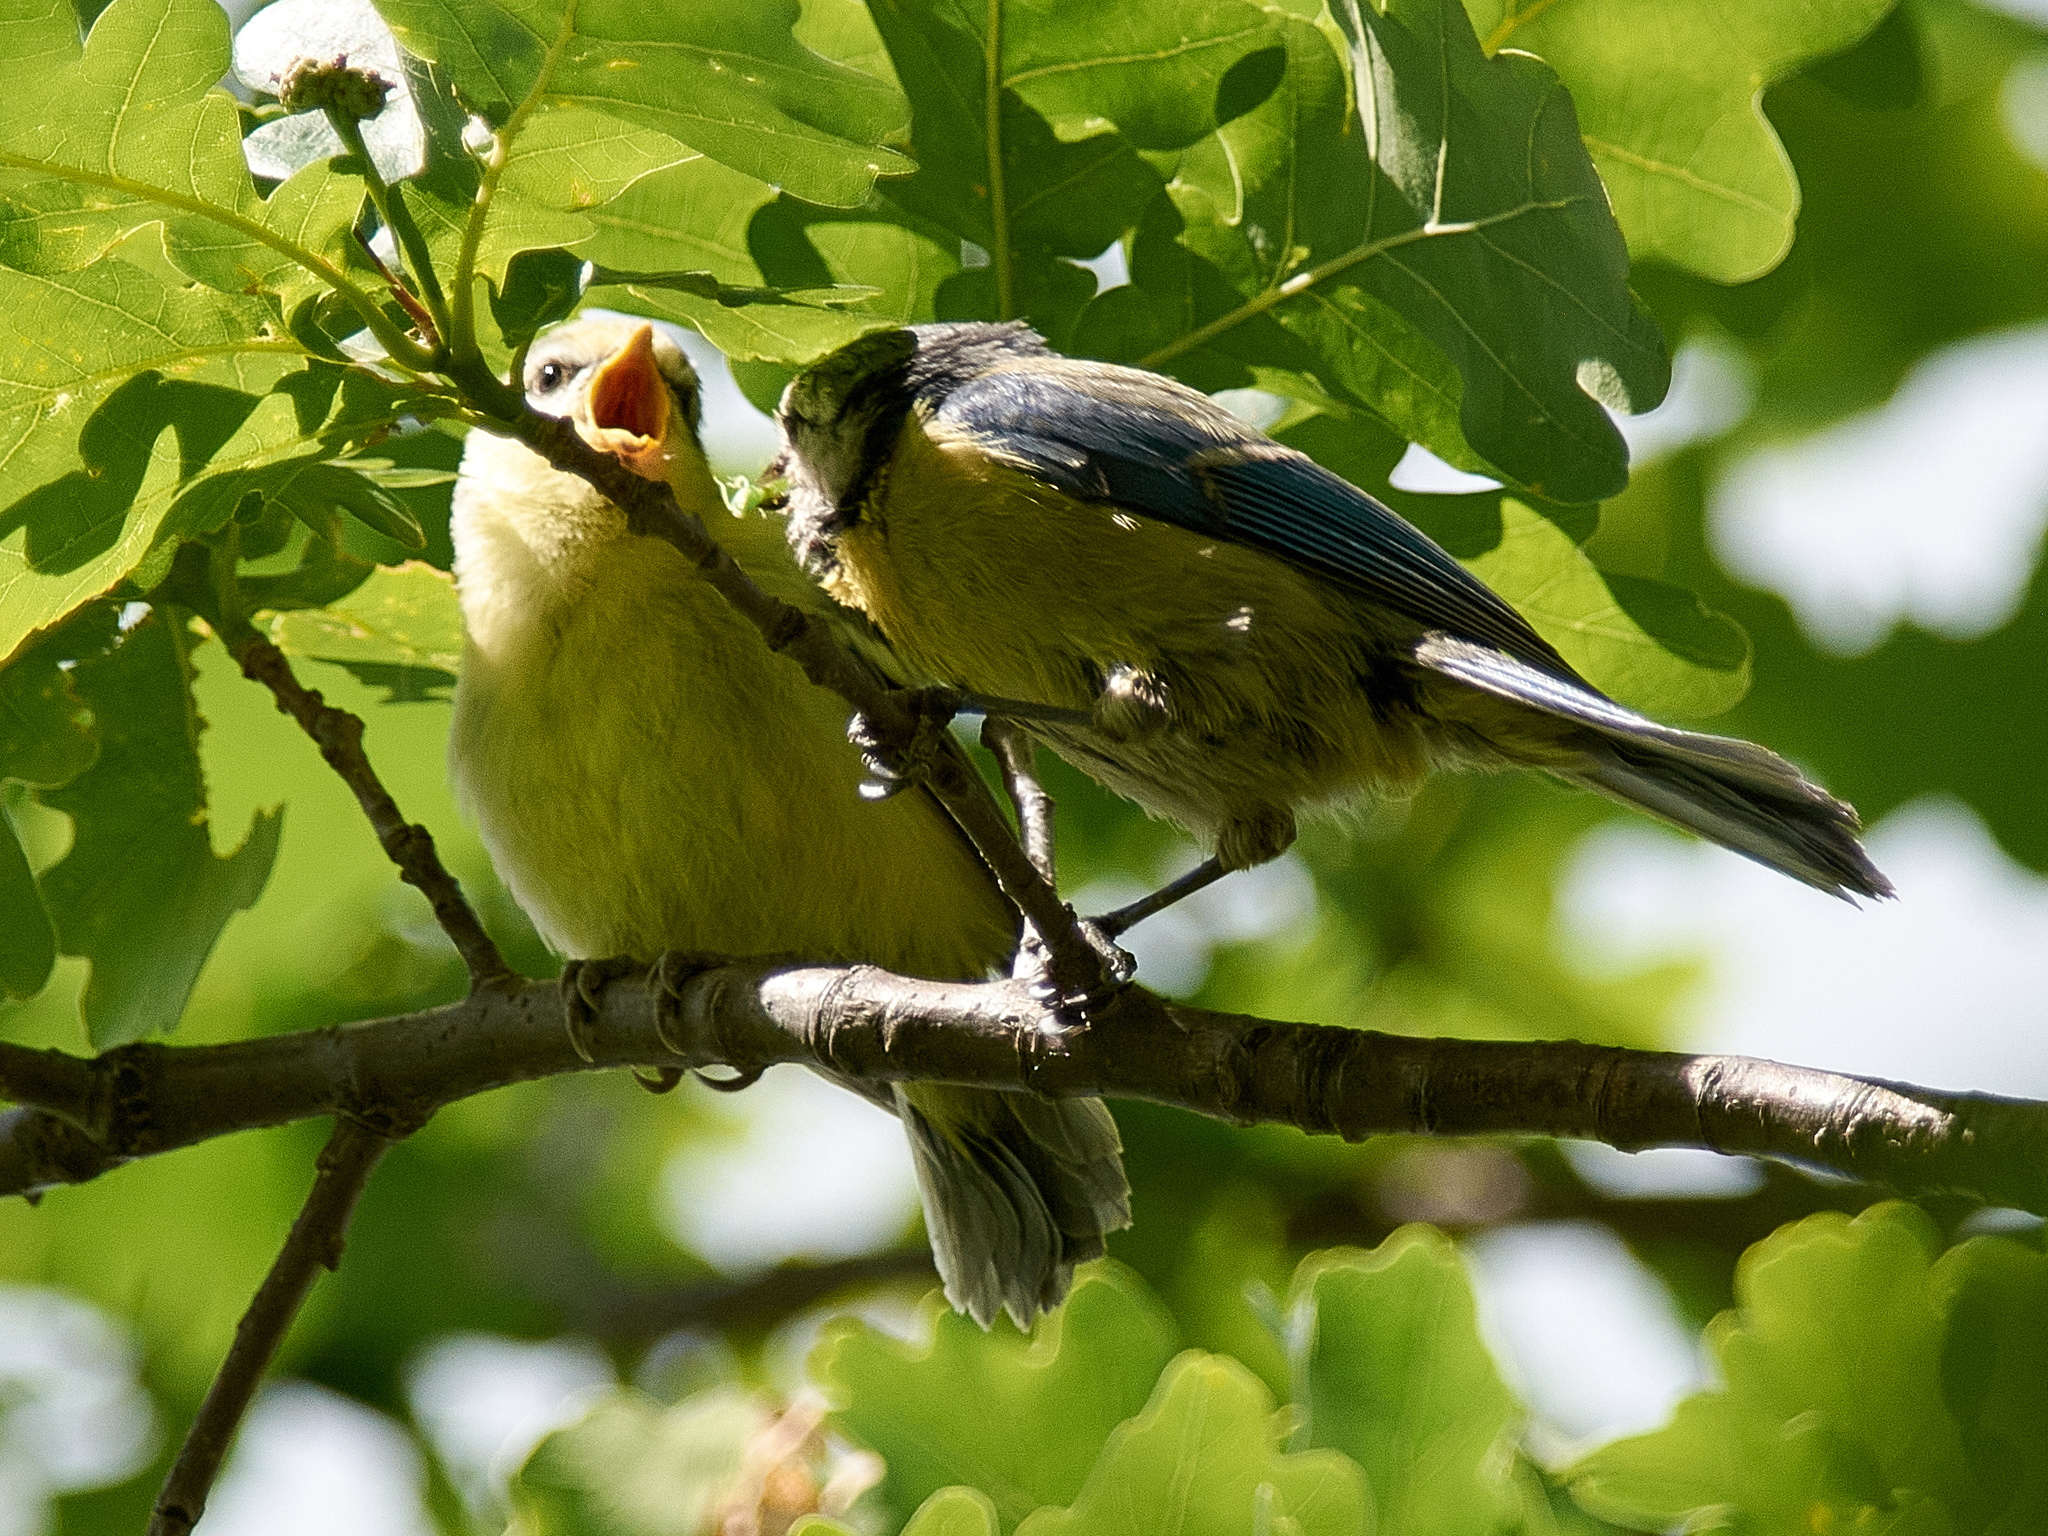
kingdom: Animalia
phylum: Chordata
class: Aves
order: Passeriformes
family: Paridae
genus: Cyanistes
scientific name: Cyanistes caeruleus
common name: Eurasian blue tit
